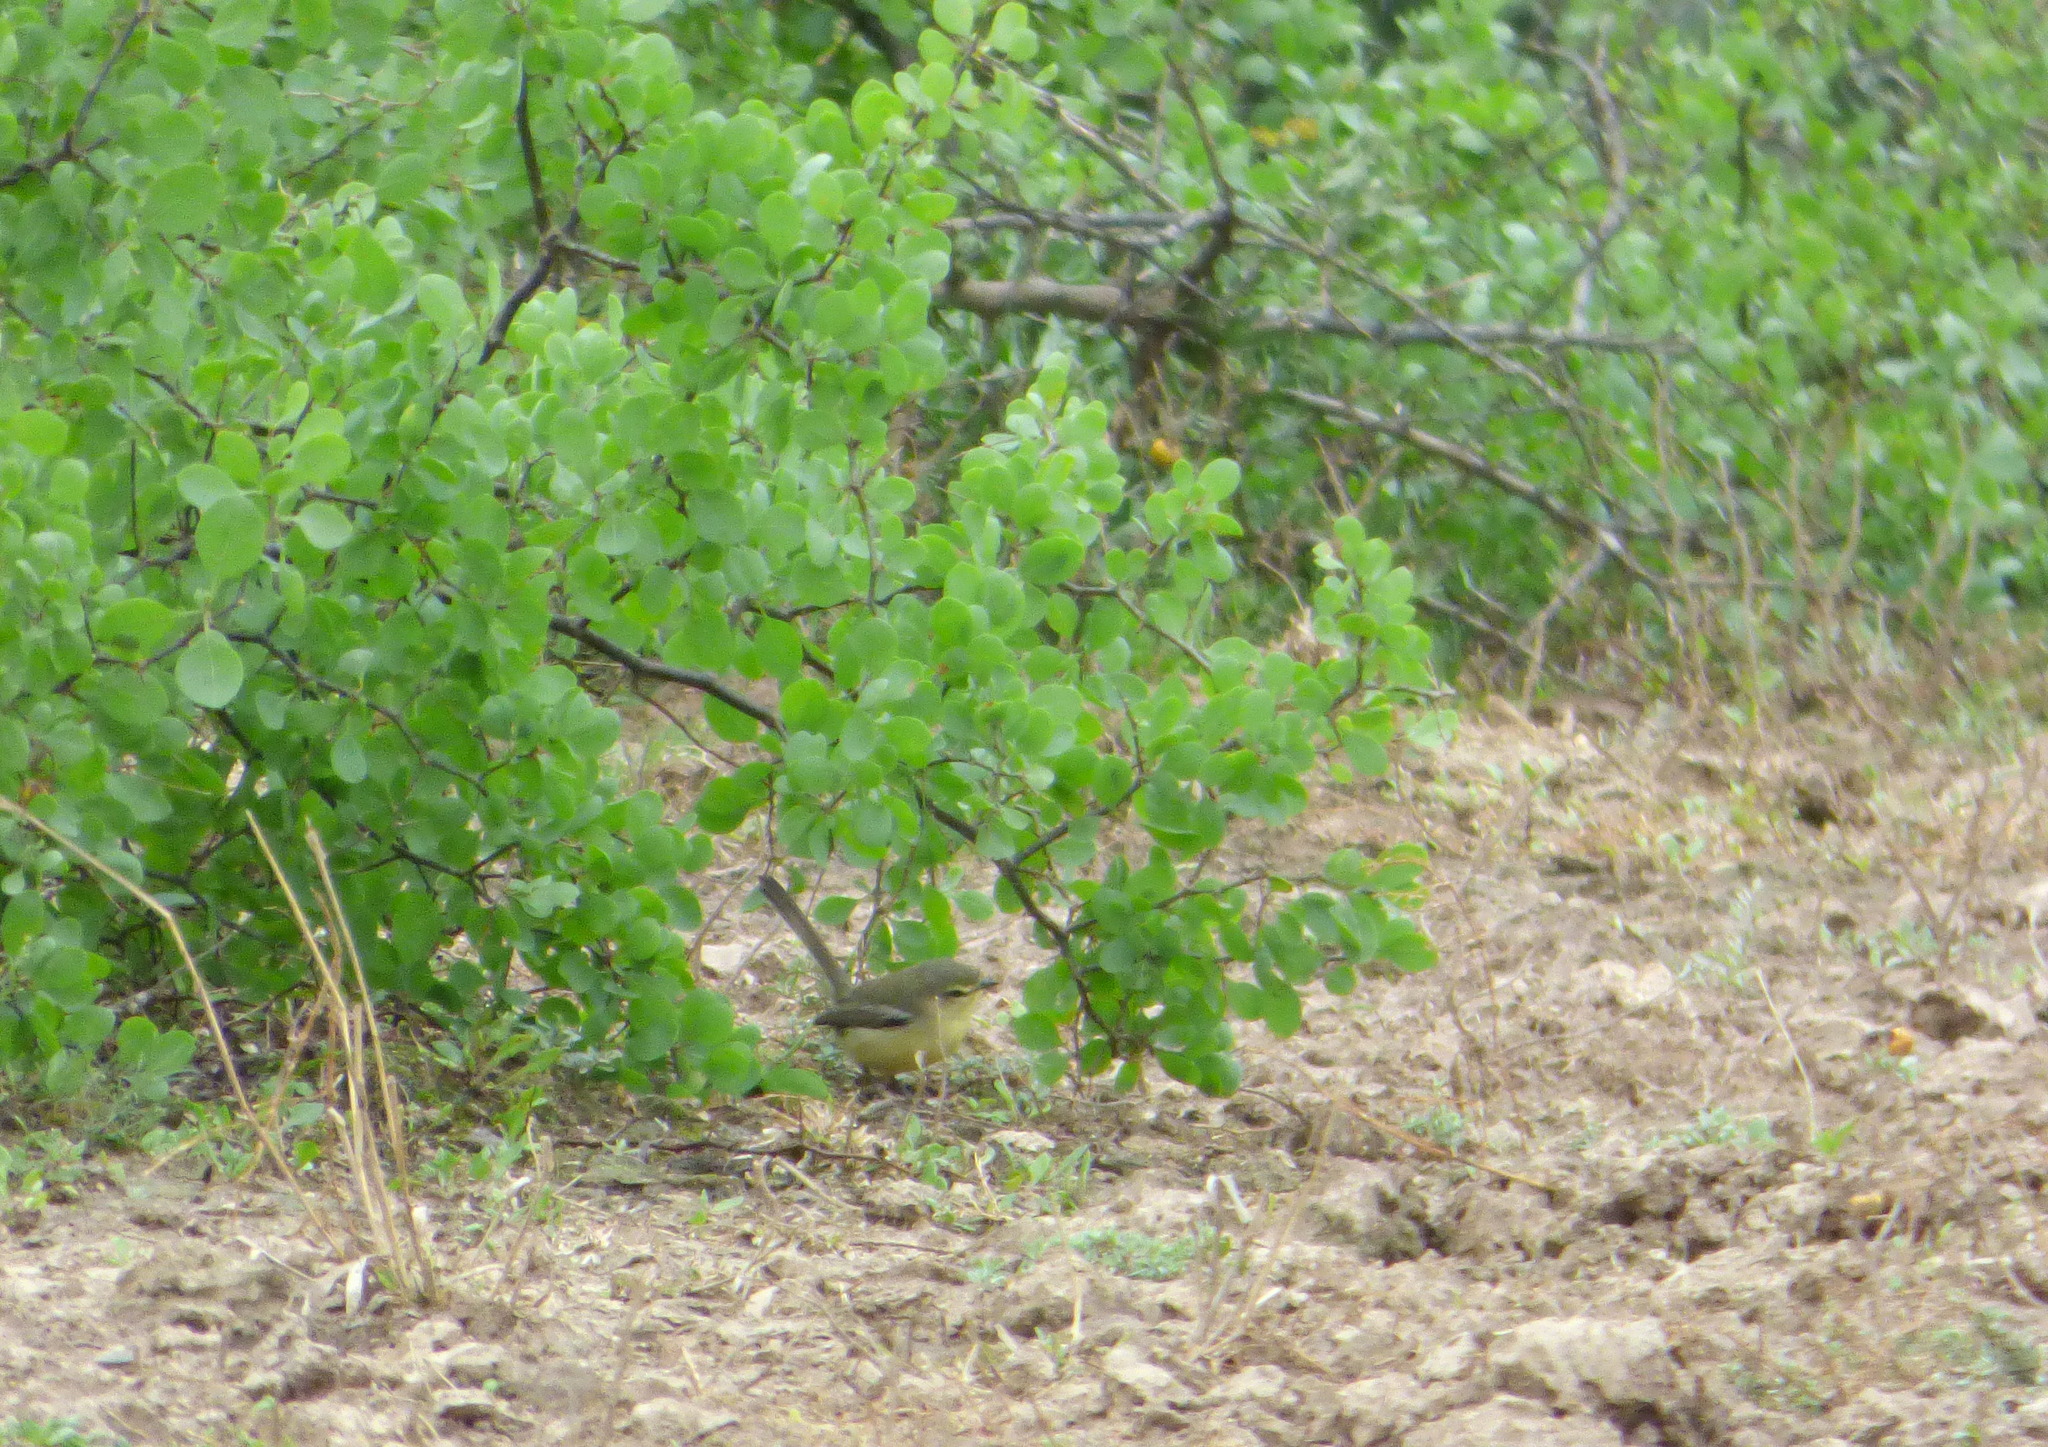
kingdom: Animalia
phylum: Chordata
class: Aves
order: Passeriformes
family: Tyrannidae
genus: Stigmatura
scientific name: Stigmatura budytoides
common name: Greater wagtail-tyrant
